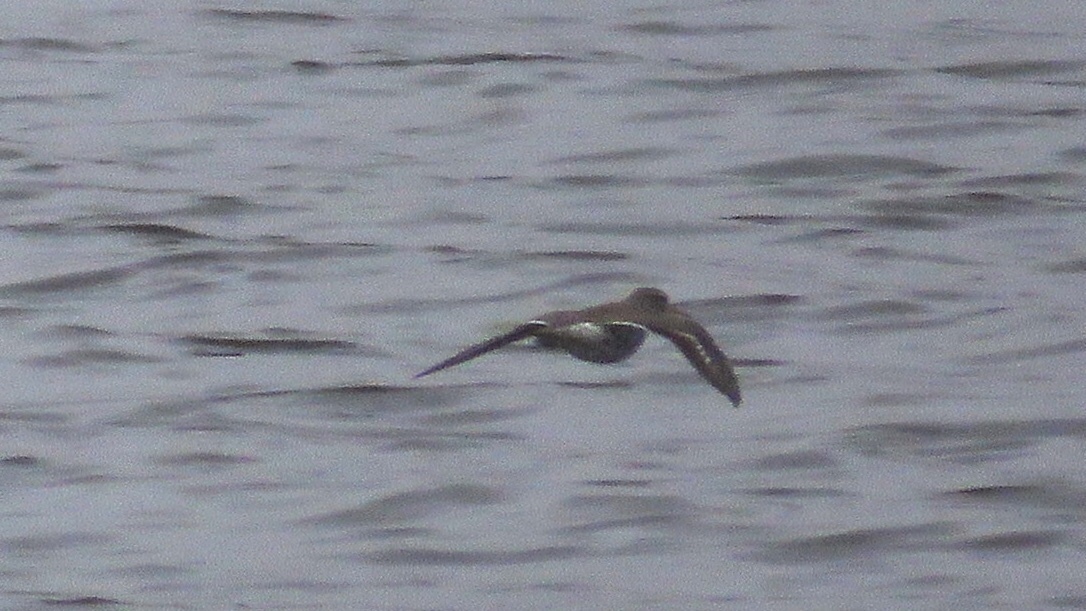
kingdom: Animalia
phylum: Chordata
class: Aves
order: Charadriiformes
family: Scolopacidae
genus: Actitis
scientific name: Actitis macularius
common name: Spotted sandpiper
